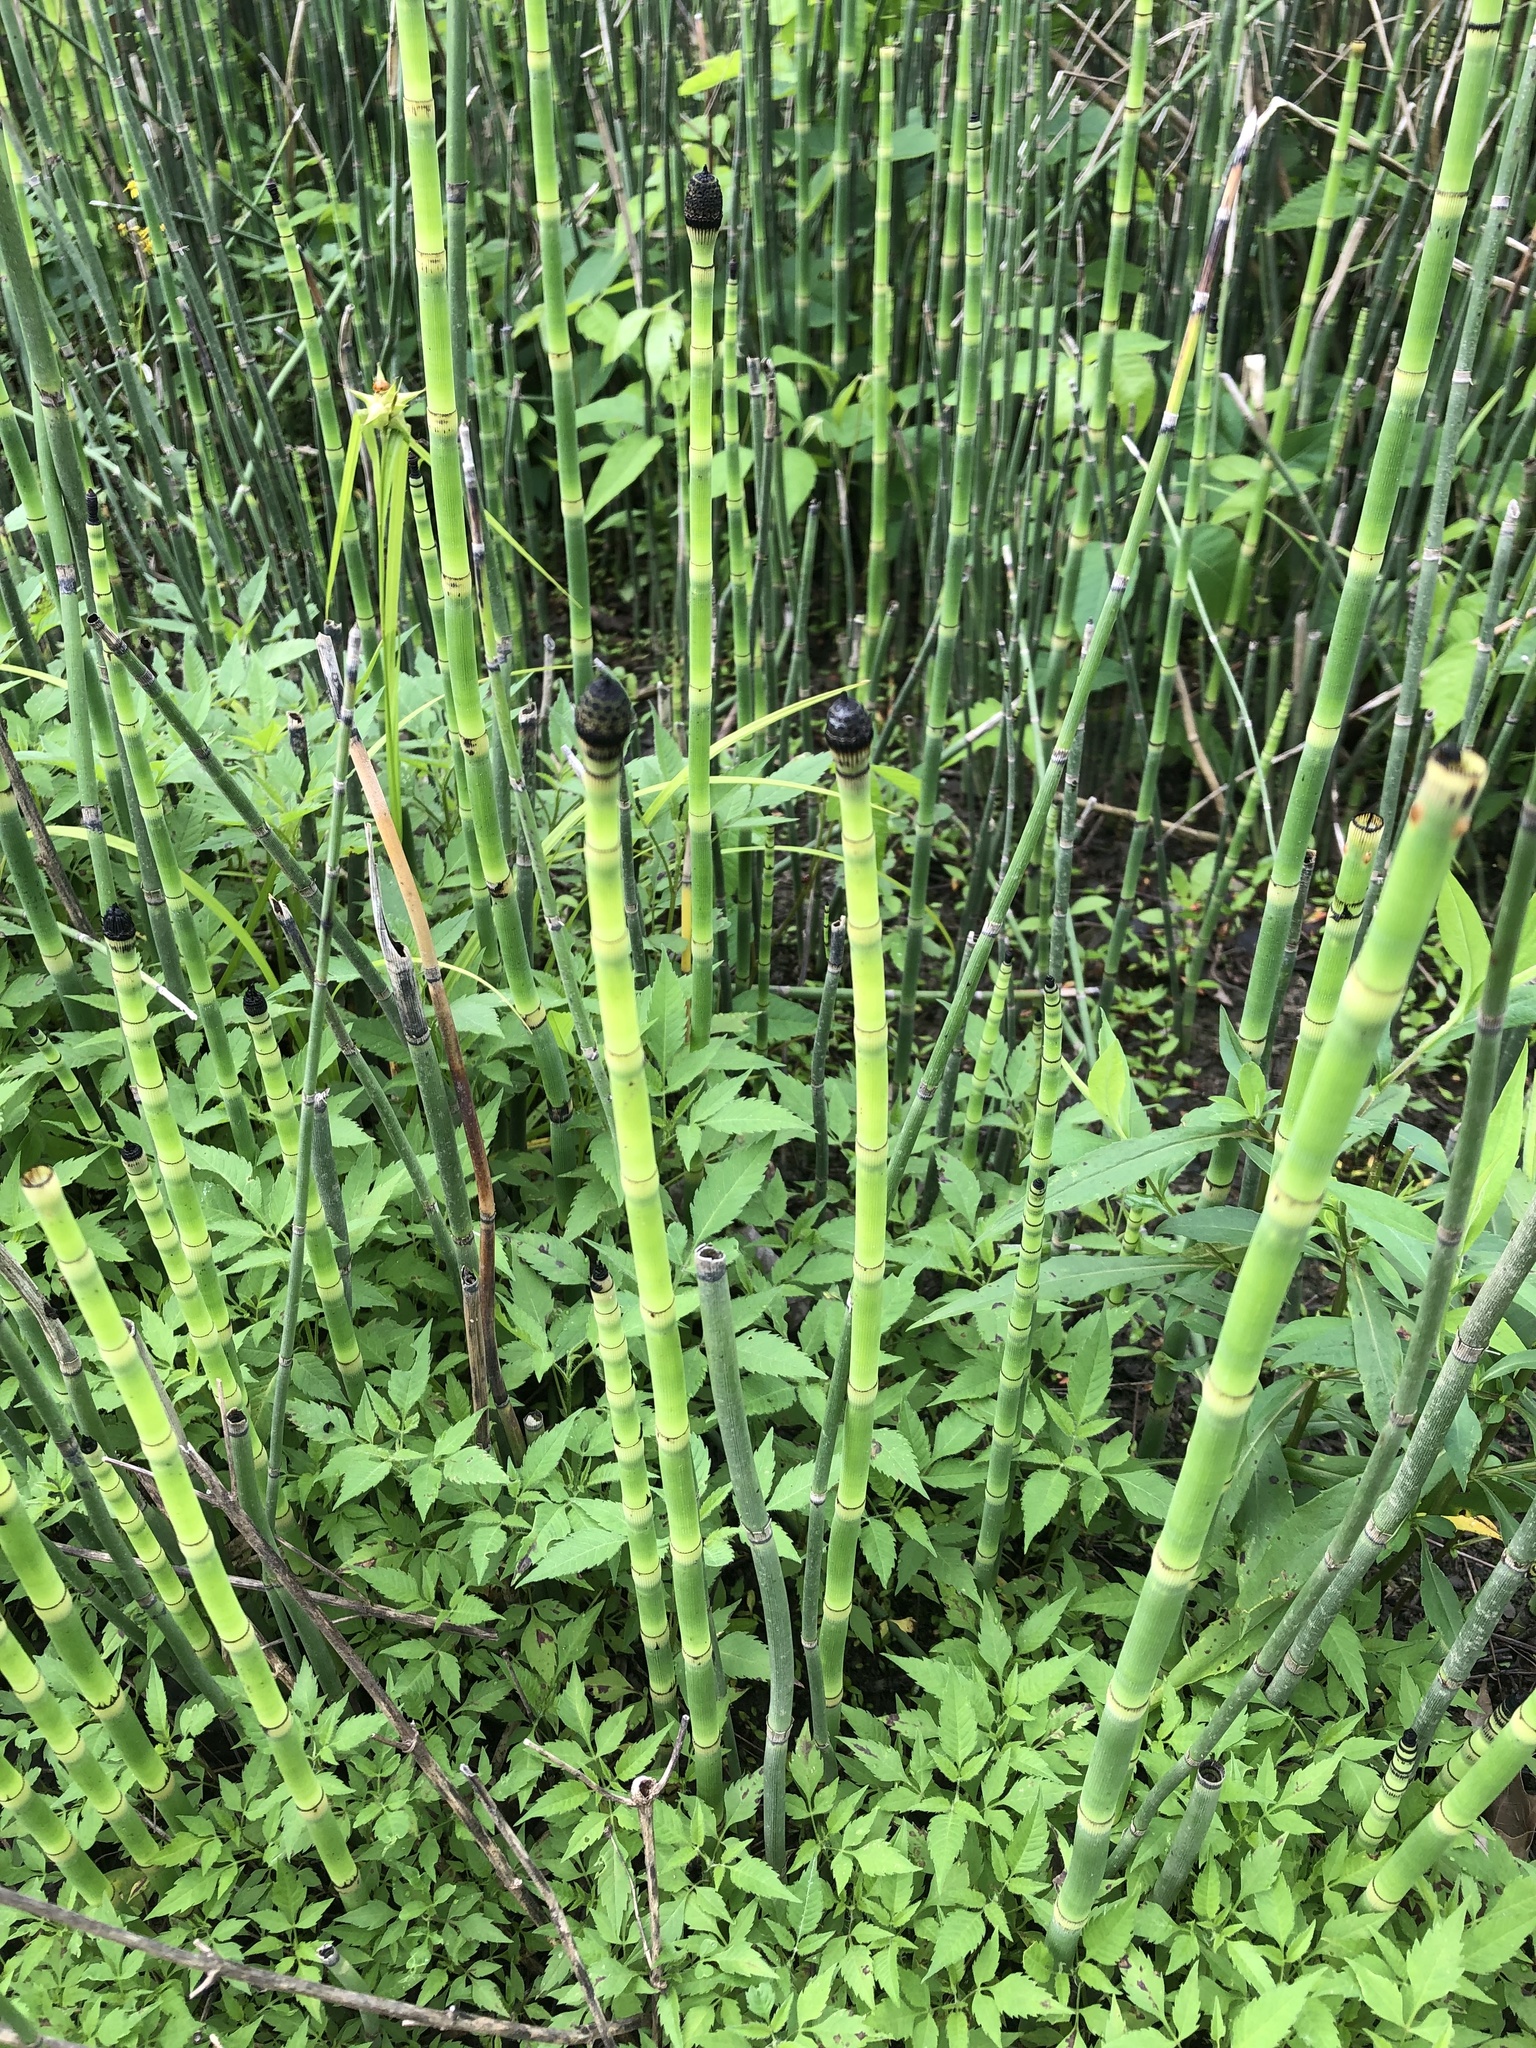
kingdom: Plantae
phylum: Tracheophyta
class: Polypodiopsida
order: Equisetales
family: Equisetaceae
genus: Equisetum
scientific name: Equisetum hyemale
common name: Rough horsetail
